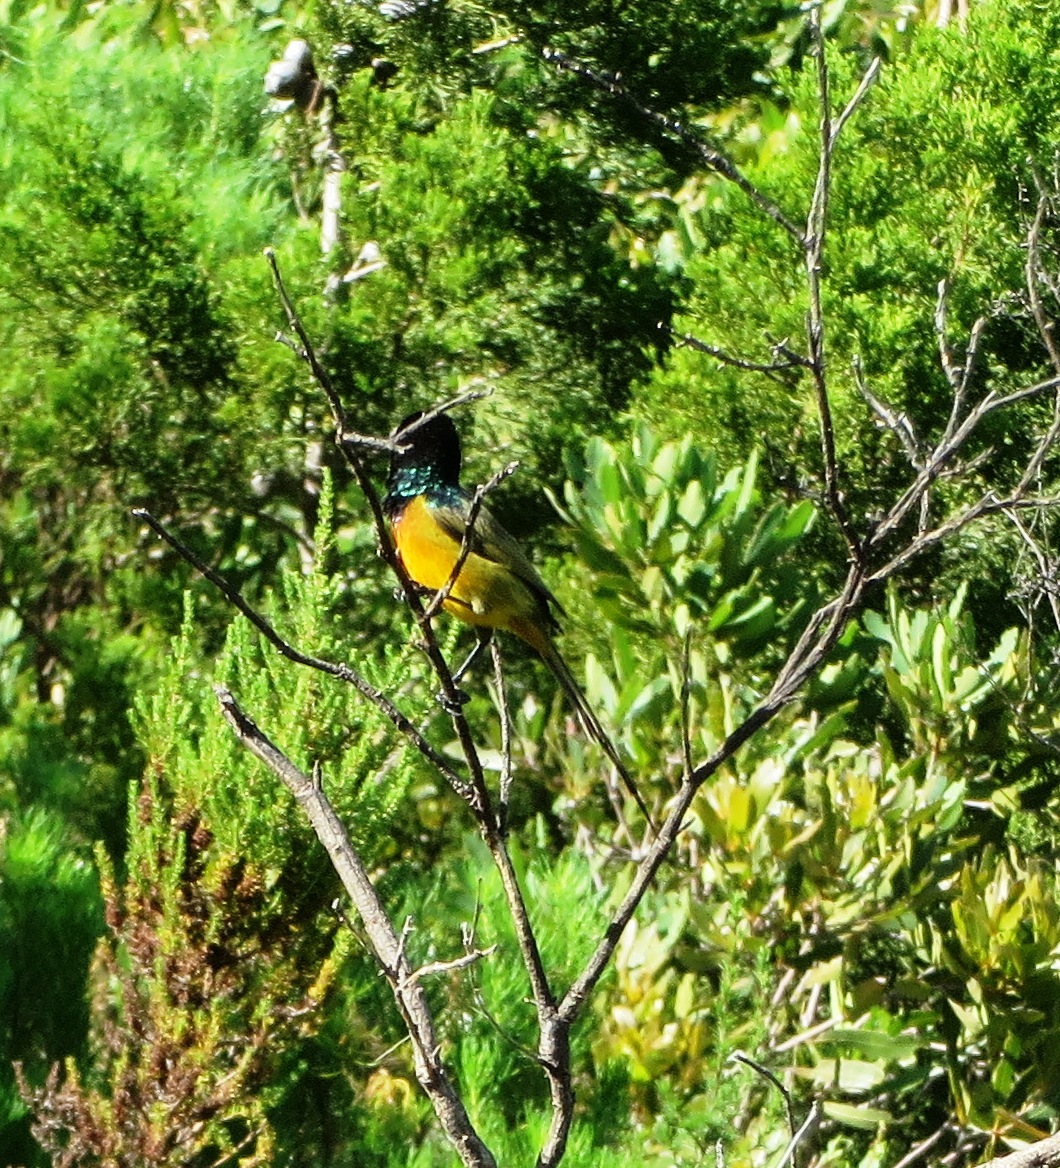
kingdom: Animalia
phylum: Chordata
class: Aves
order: Passeriformes
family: Nectariniidae
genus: Anthobaphes
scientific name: Anthobaphes violacea
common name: Orange-breasted sunbird
